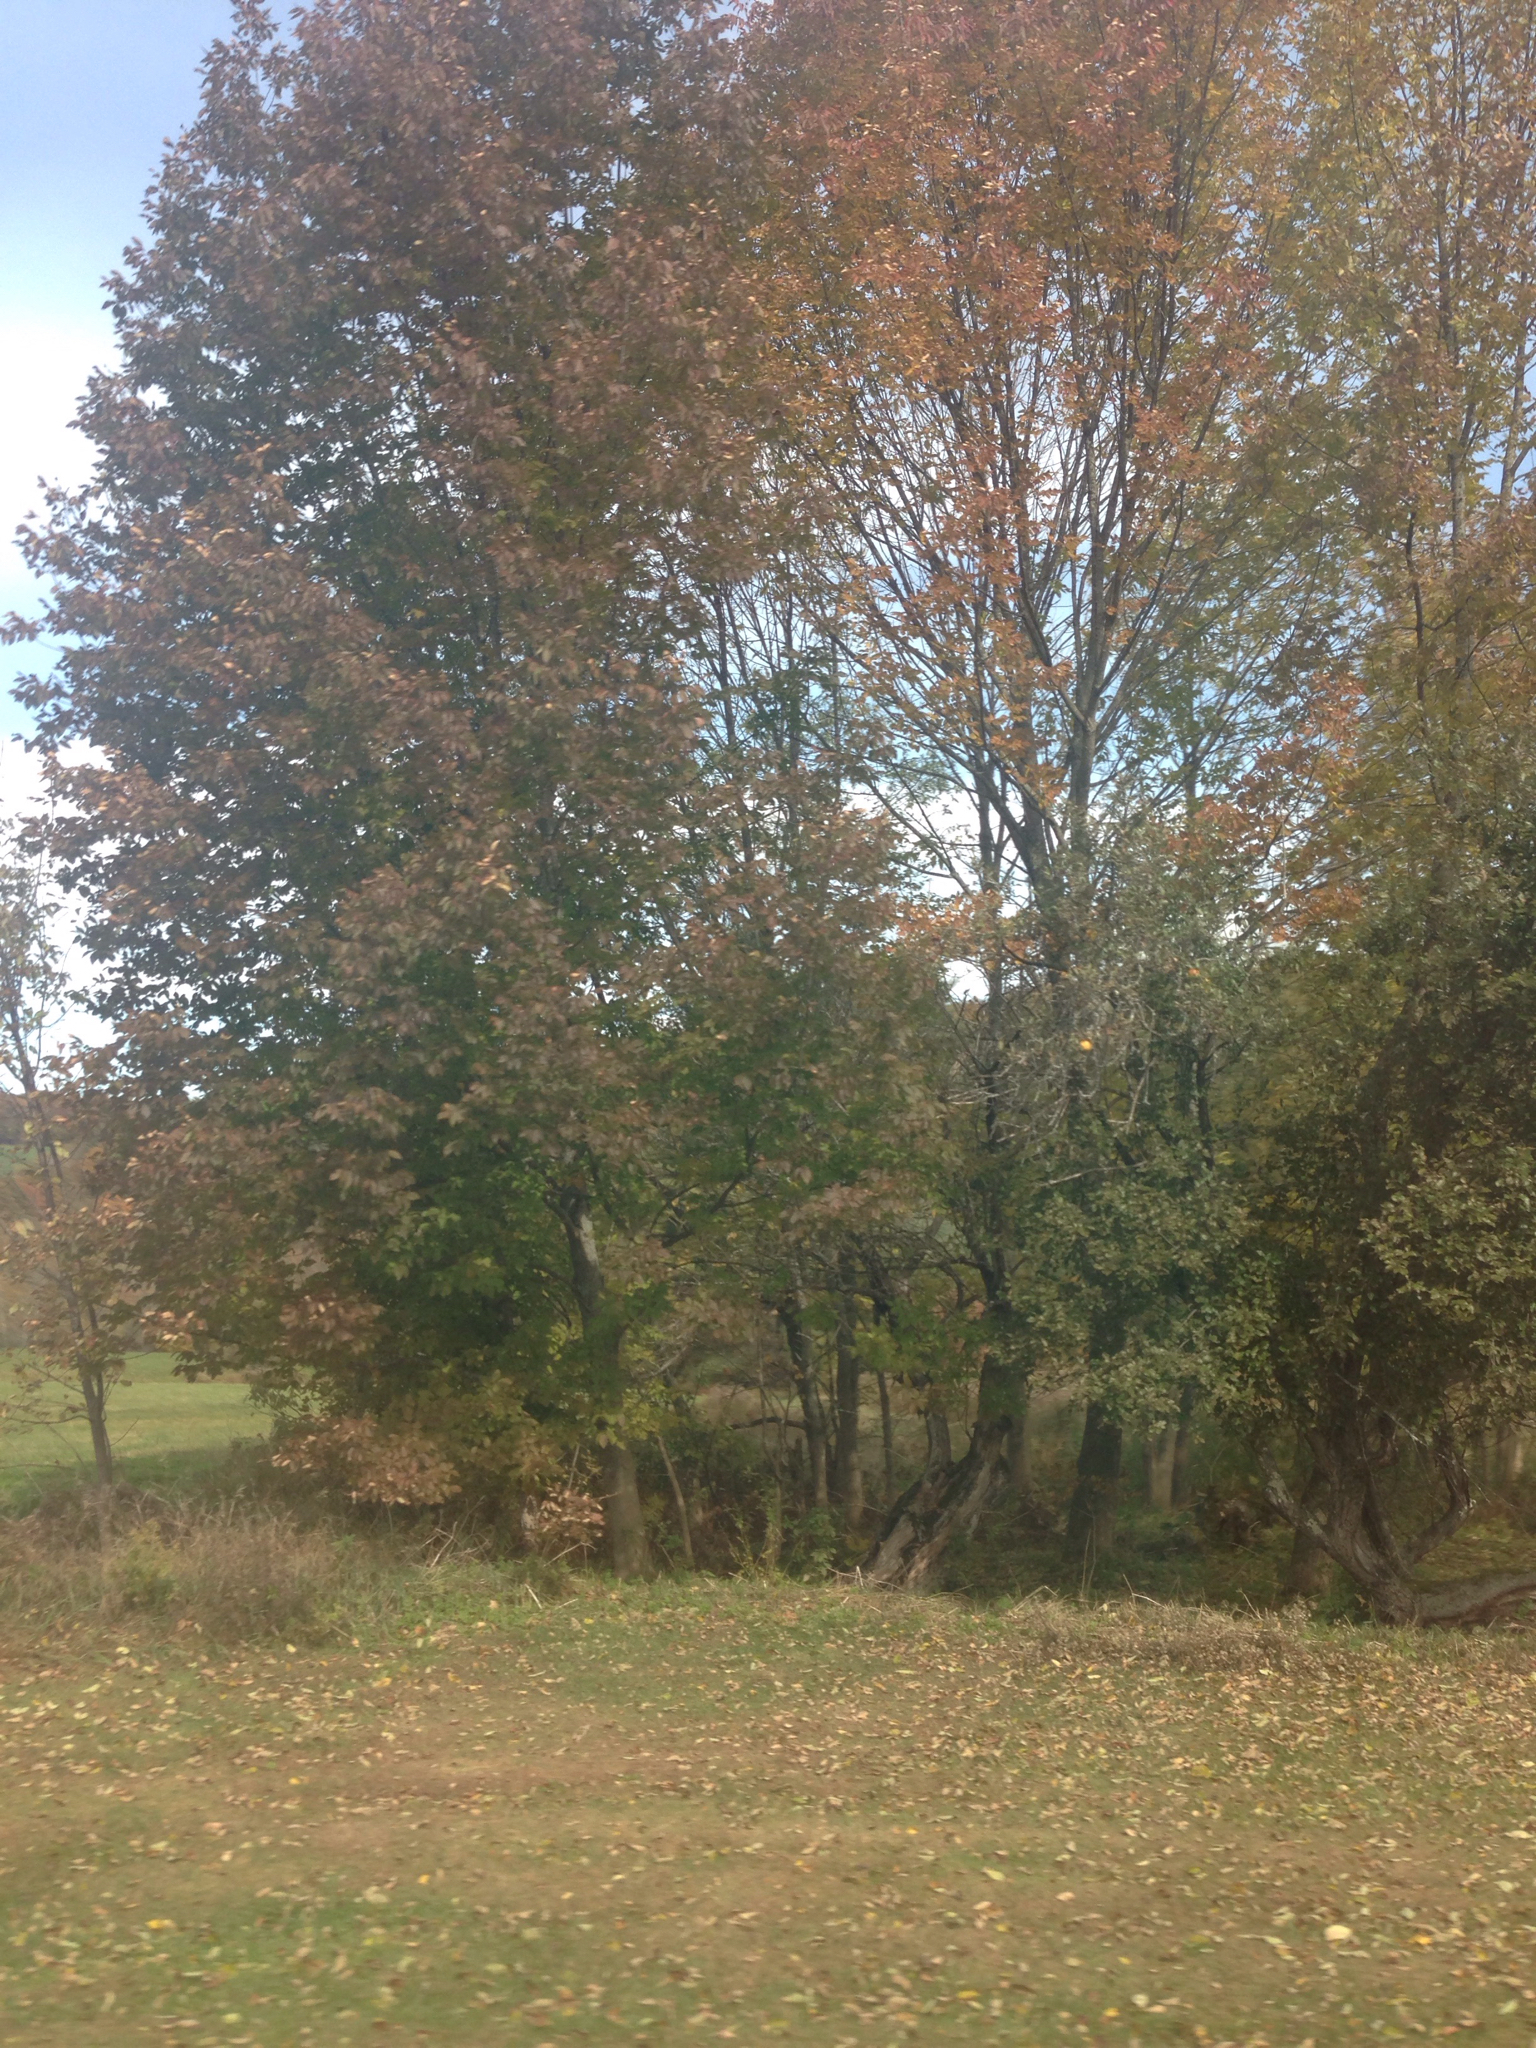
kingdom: Plantae
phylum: Tracheophyta
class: Magnoliopsida
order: Lamiales
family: Oleaceae
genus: Fraxinus
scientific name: Fraxinus americana
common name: White ash
